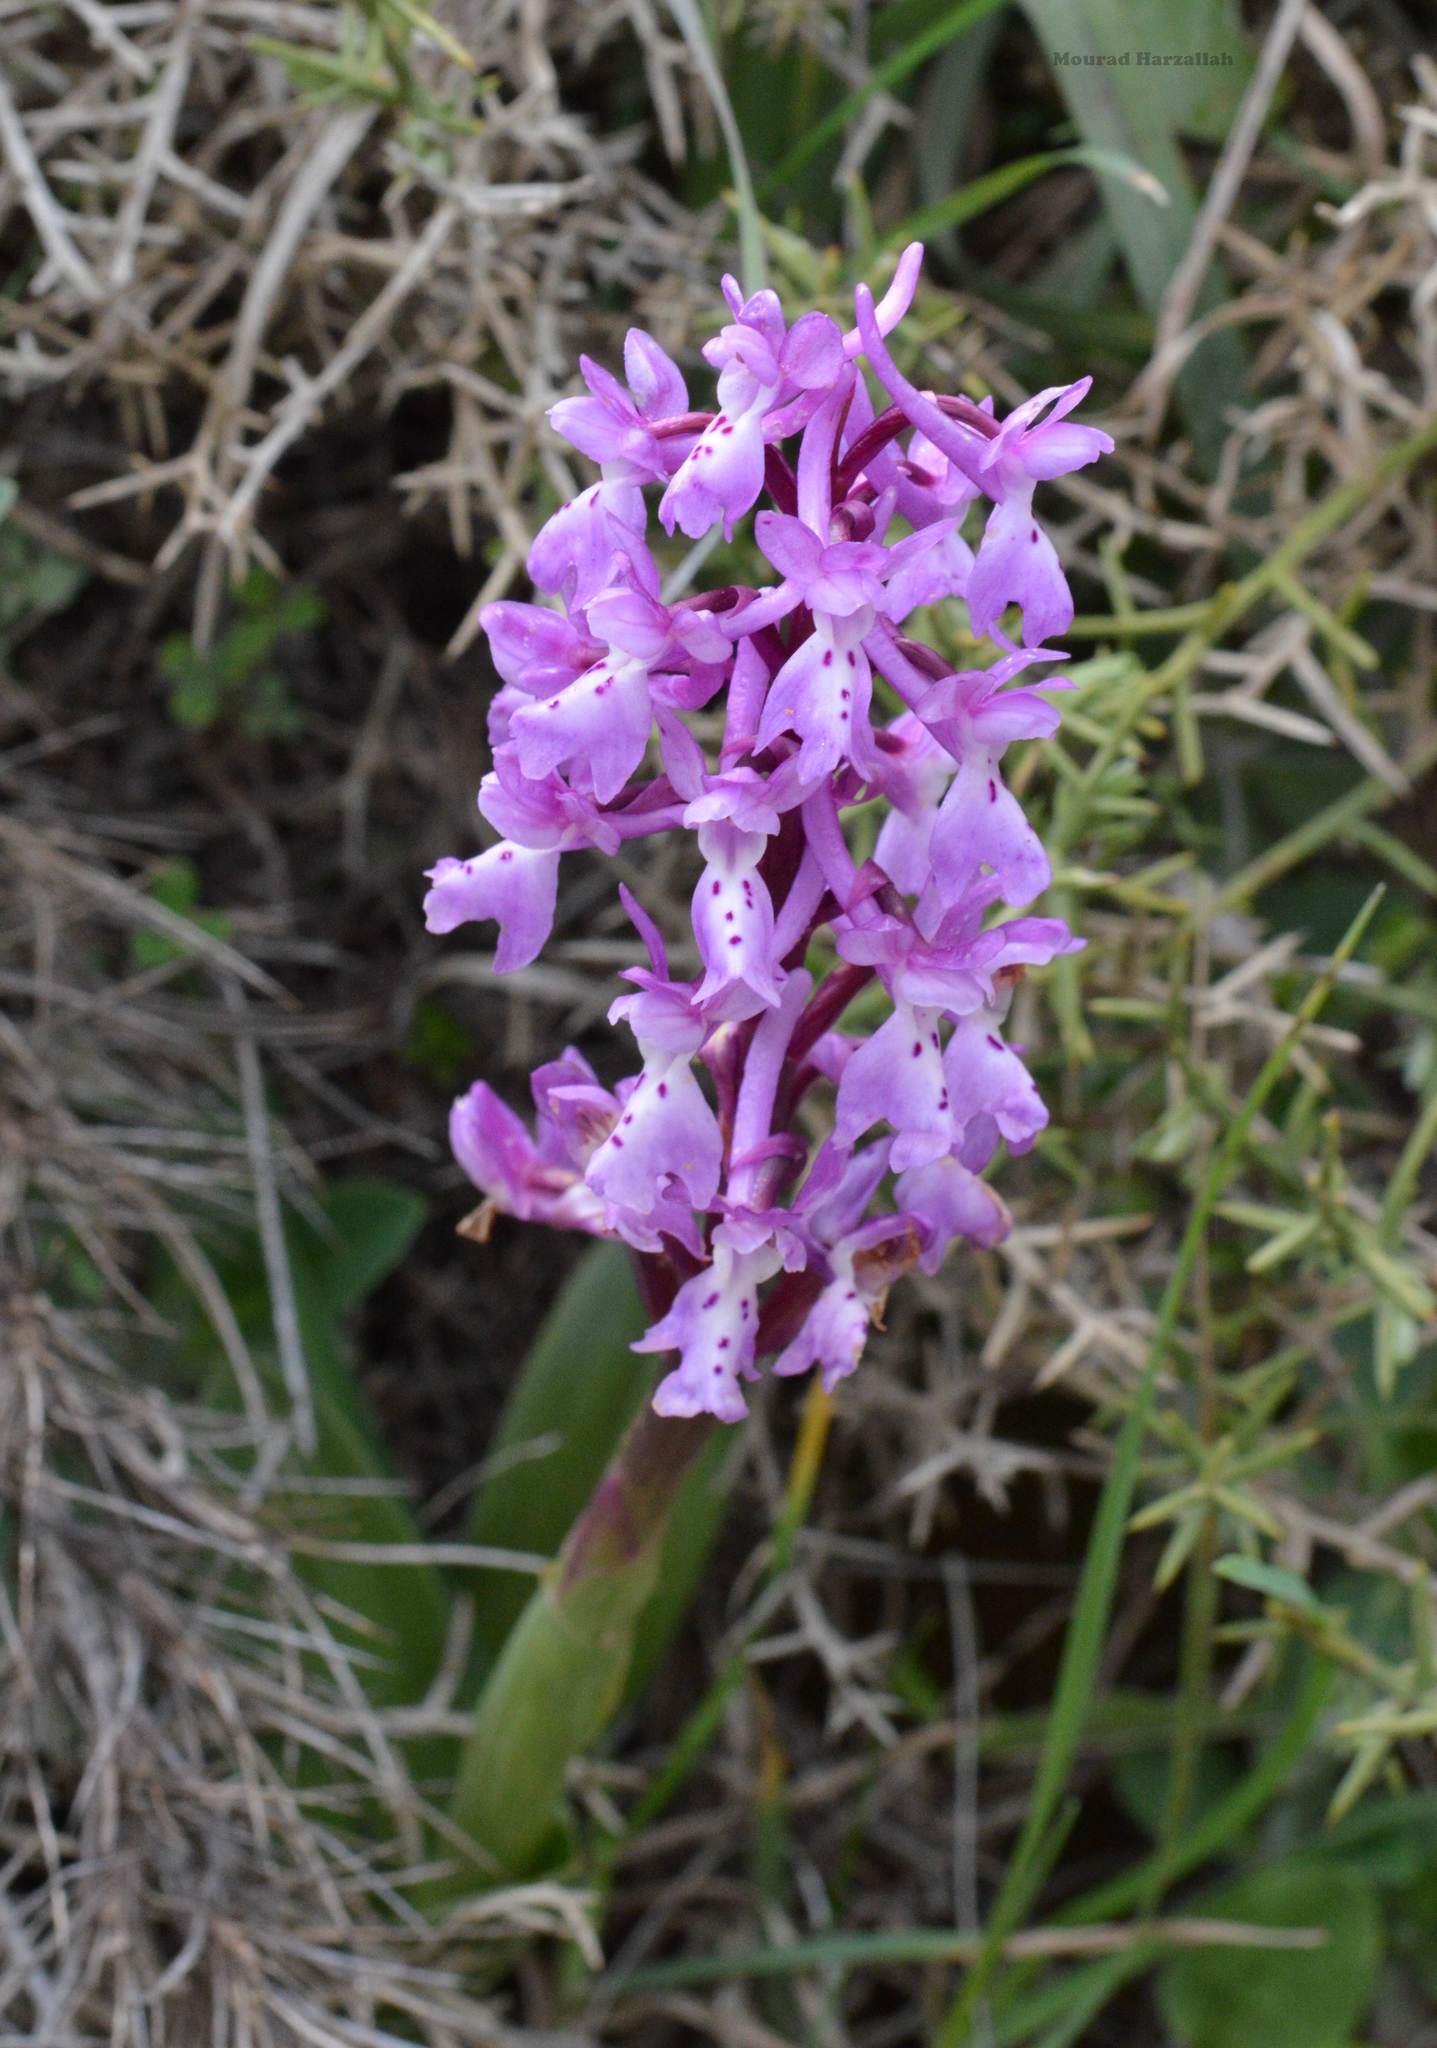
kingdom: Plantae
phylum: Tracheophyta
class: Liliopsida
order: Asparagales
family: Orchidaceae
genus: Orchis
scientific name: Orchis olbiensis
